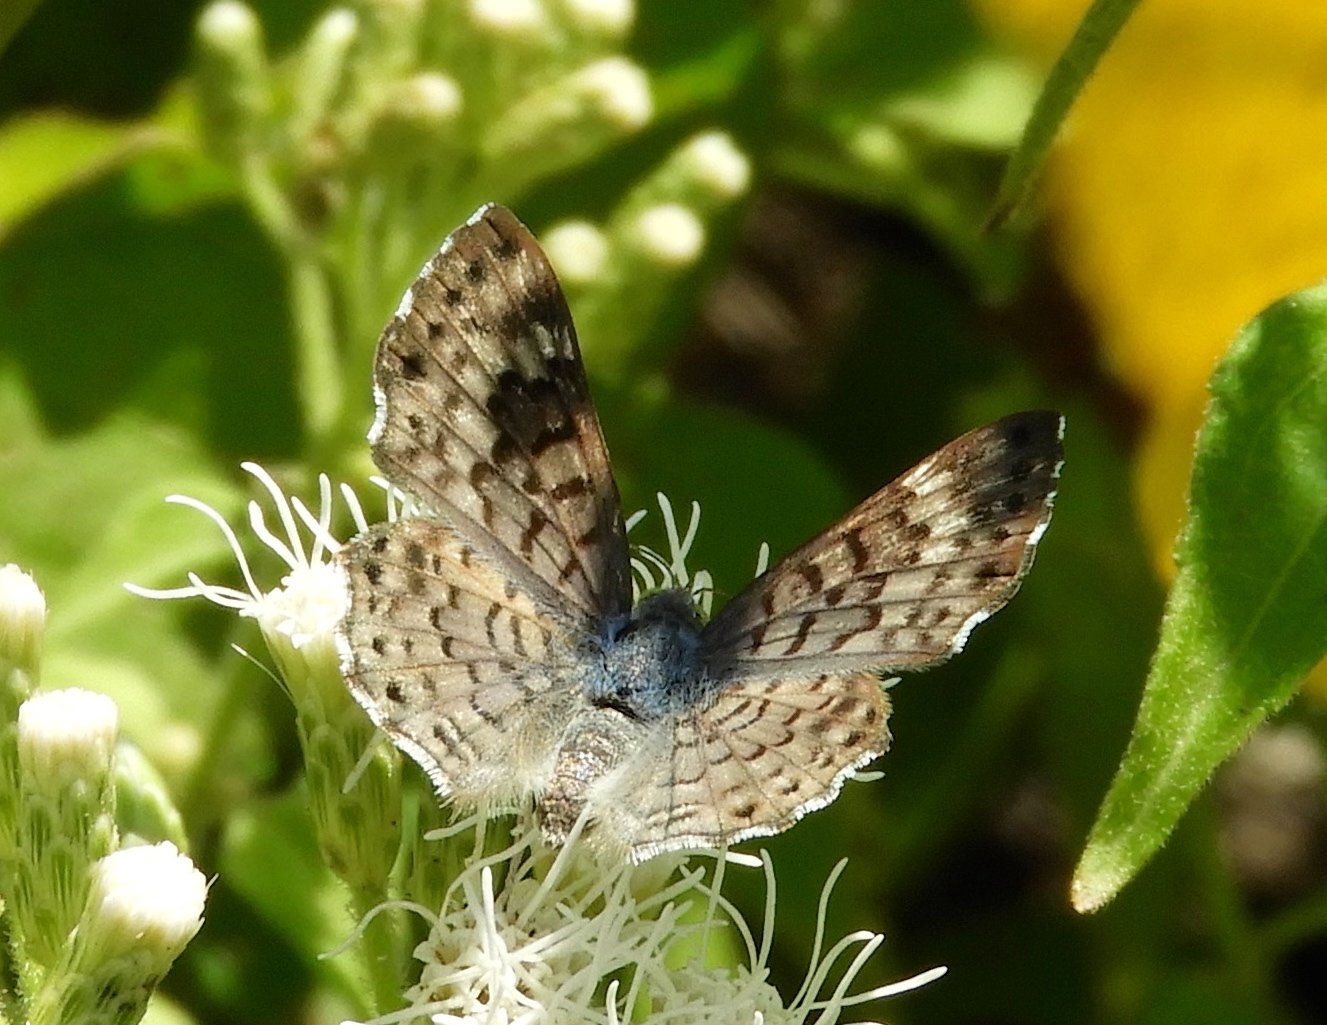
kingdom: Animalia
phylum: Arthropoda
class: Insecta
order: Lepidoptera
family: Riodinidae
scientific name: Riodinidae
